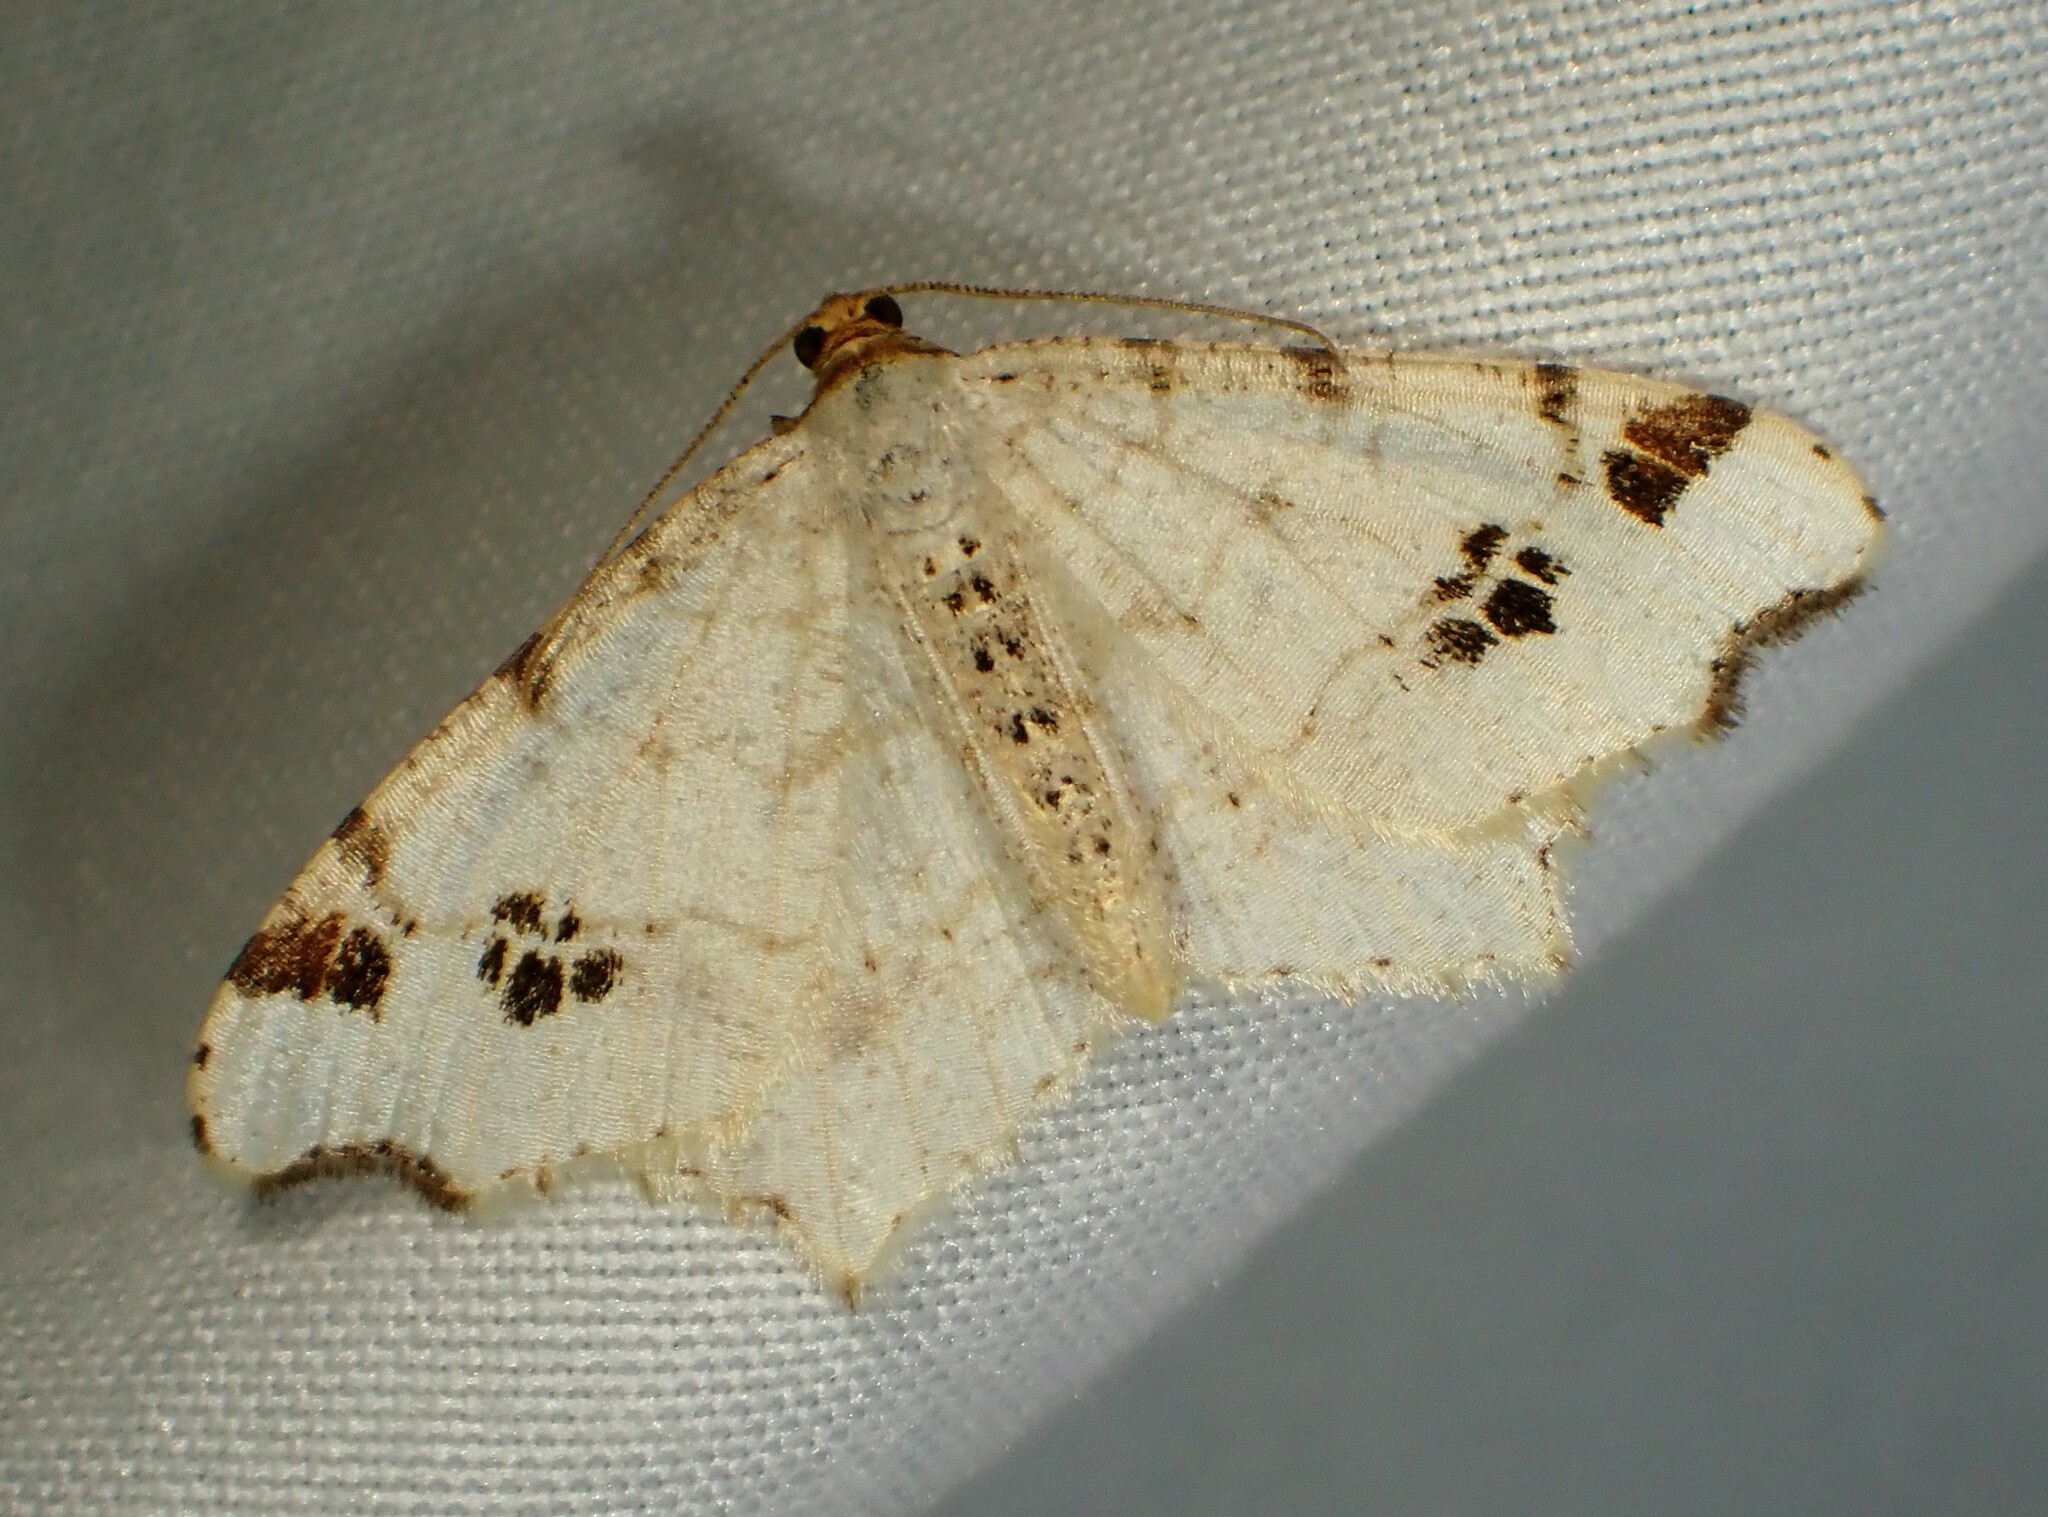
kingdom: Animalia
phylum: Arthropoda
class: Insecta
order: Lepidoptera
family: Geometridae
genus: Macaria
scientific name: Macaria ulsterata
